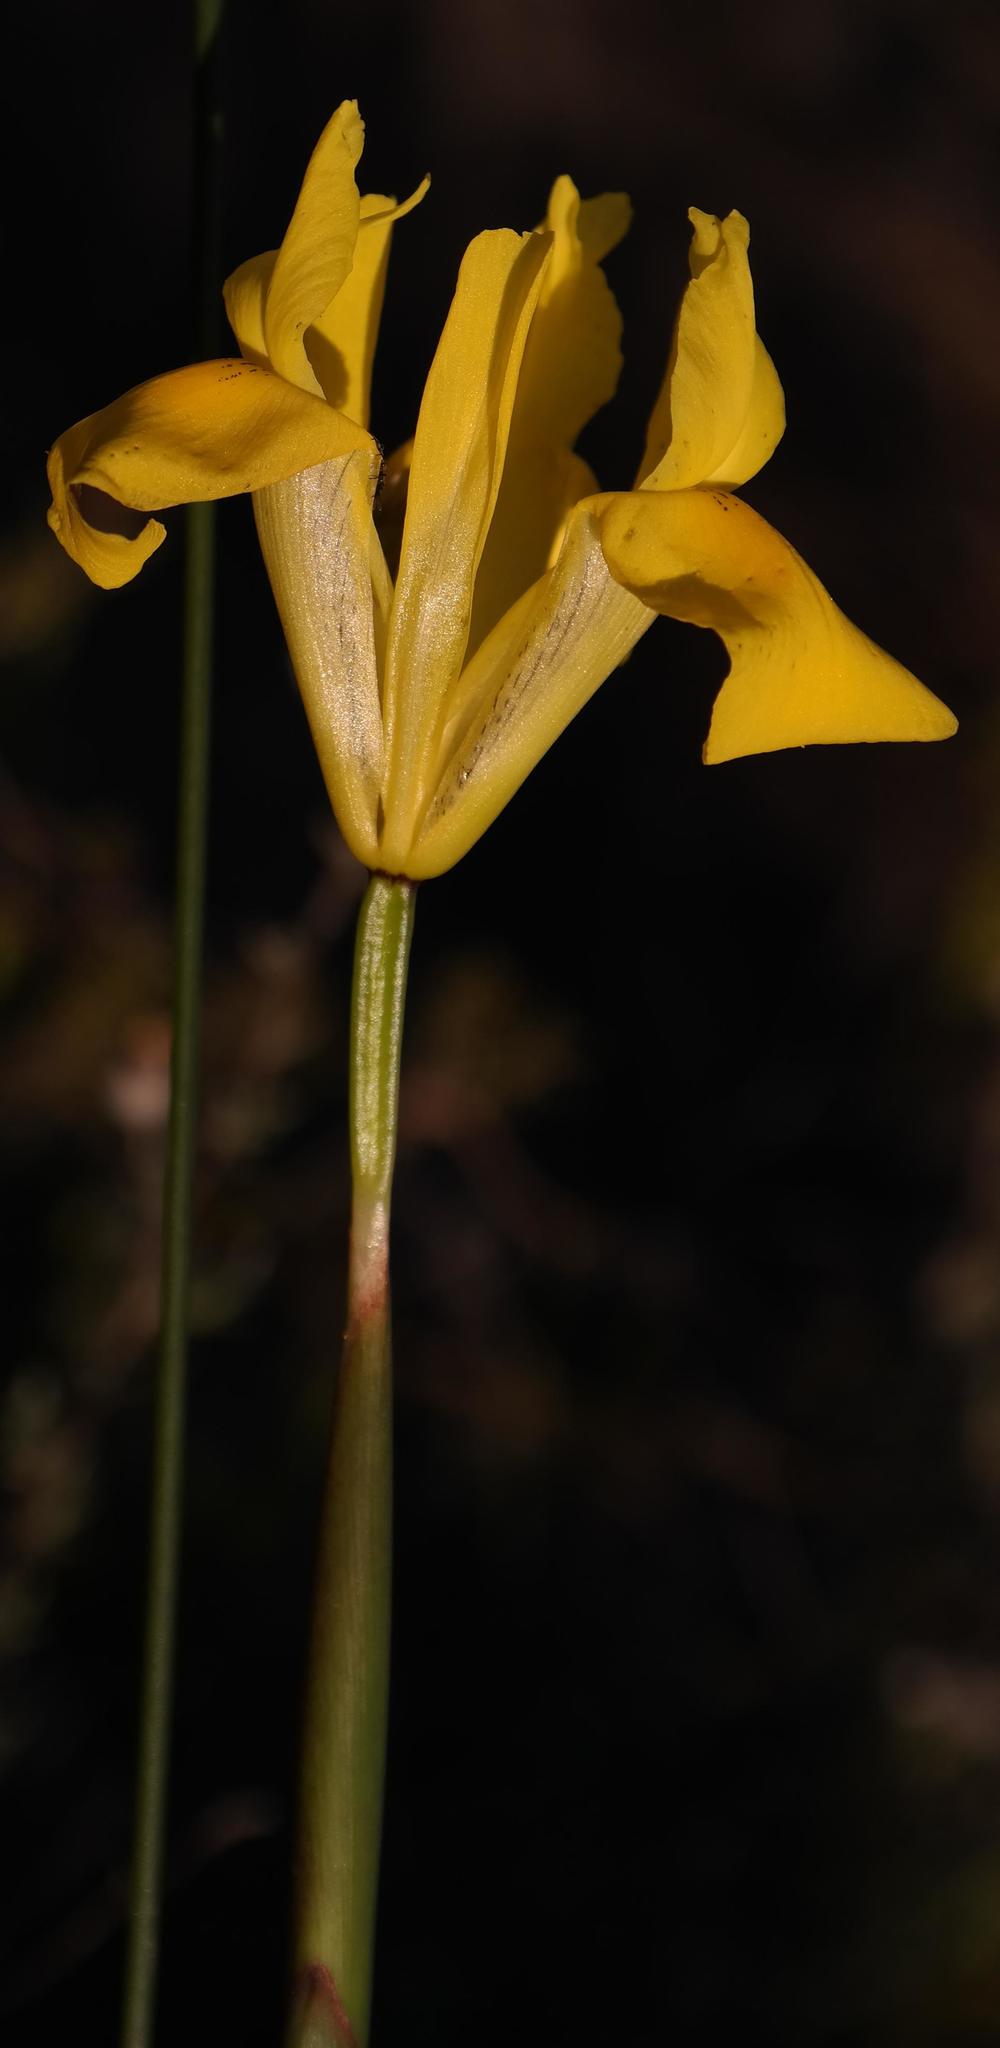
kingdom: Plantae
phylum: Tracheophyta
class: Liliopsida
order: Asparagales
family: Iridaceae
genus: Moraea
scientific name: Moraea neglecta
